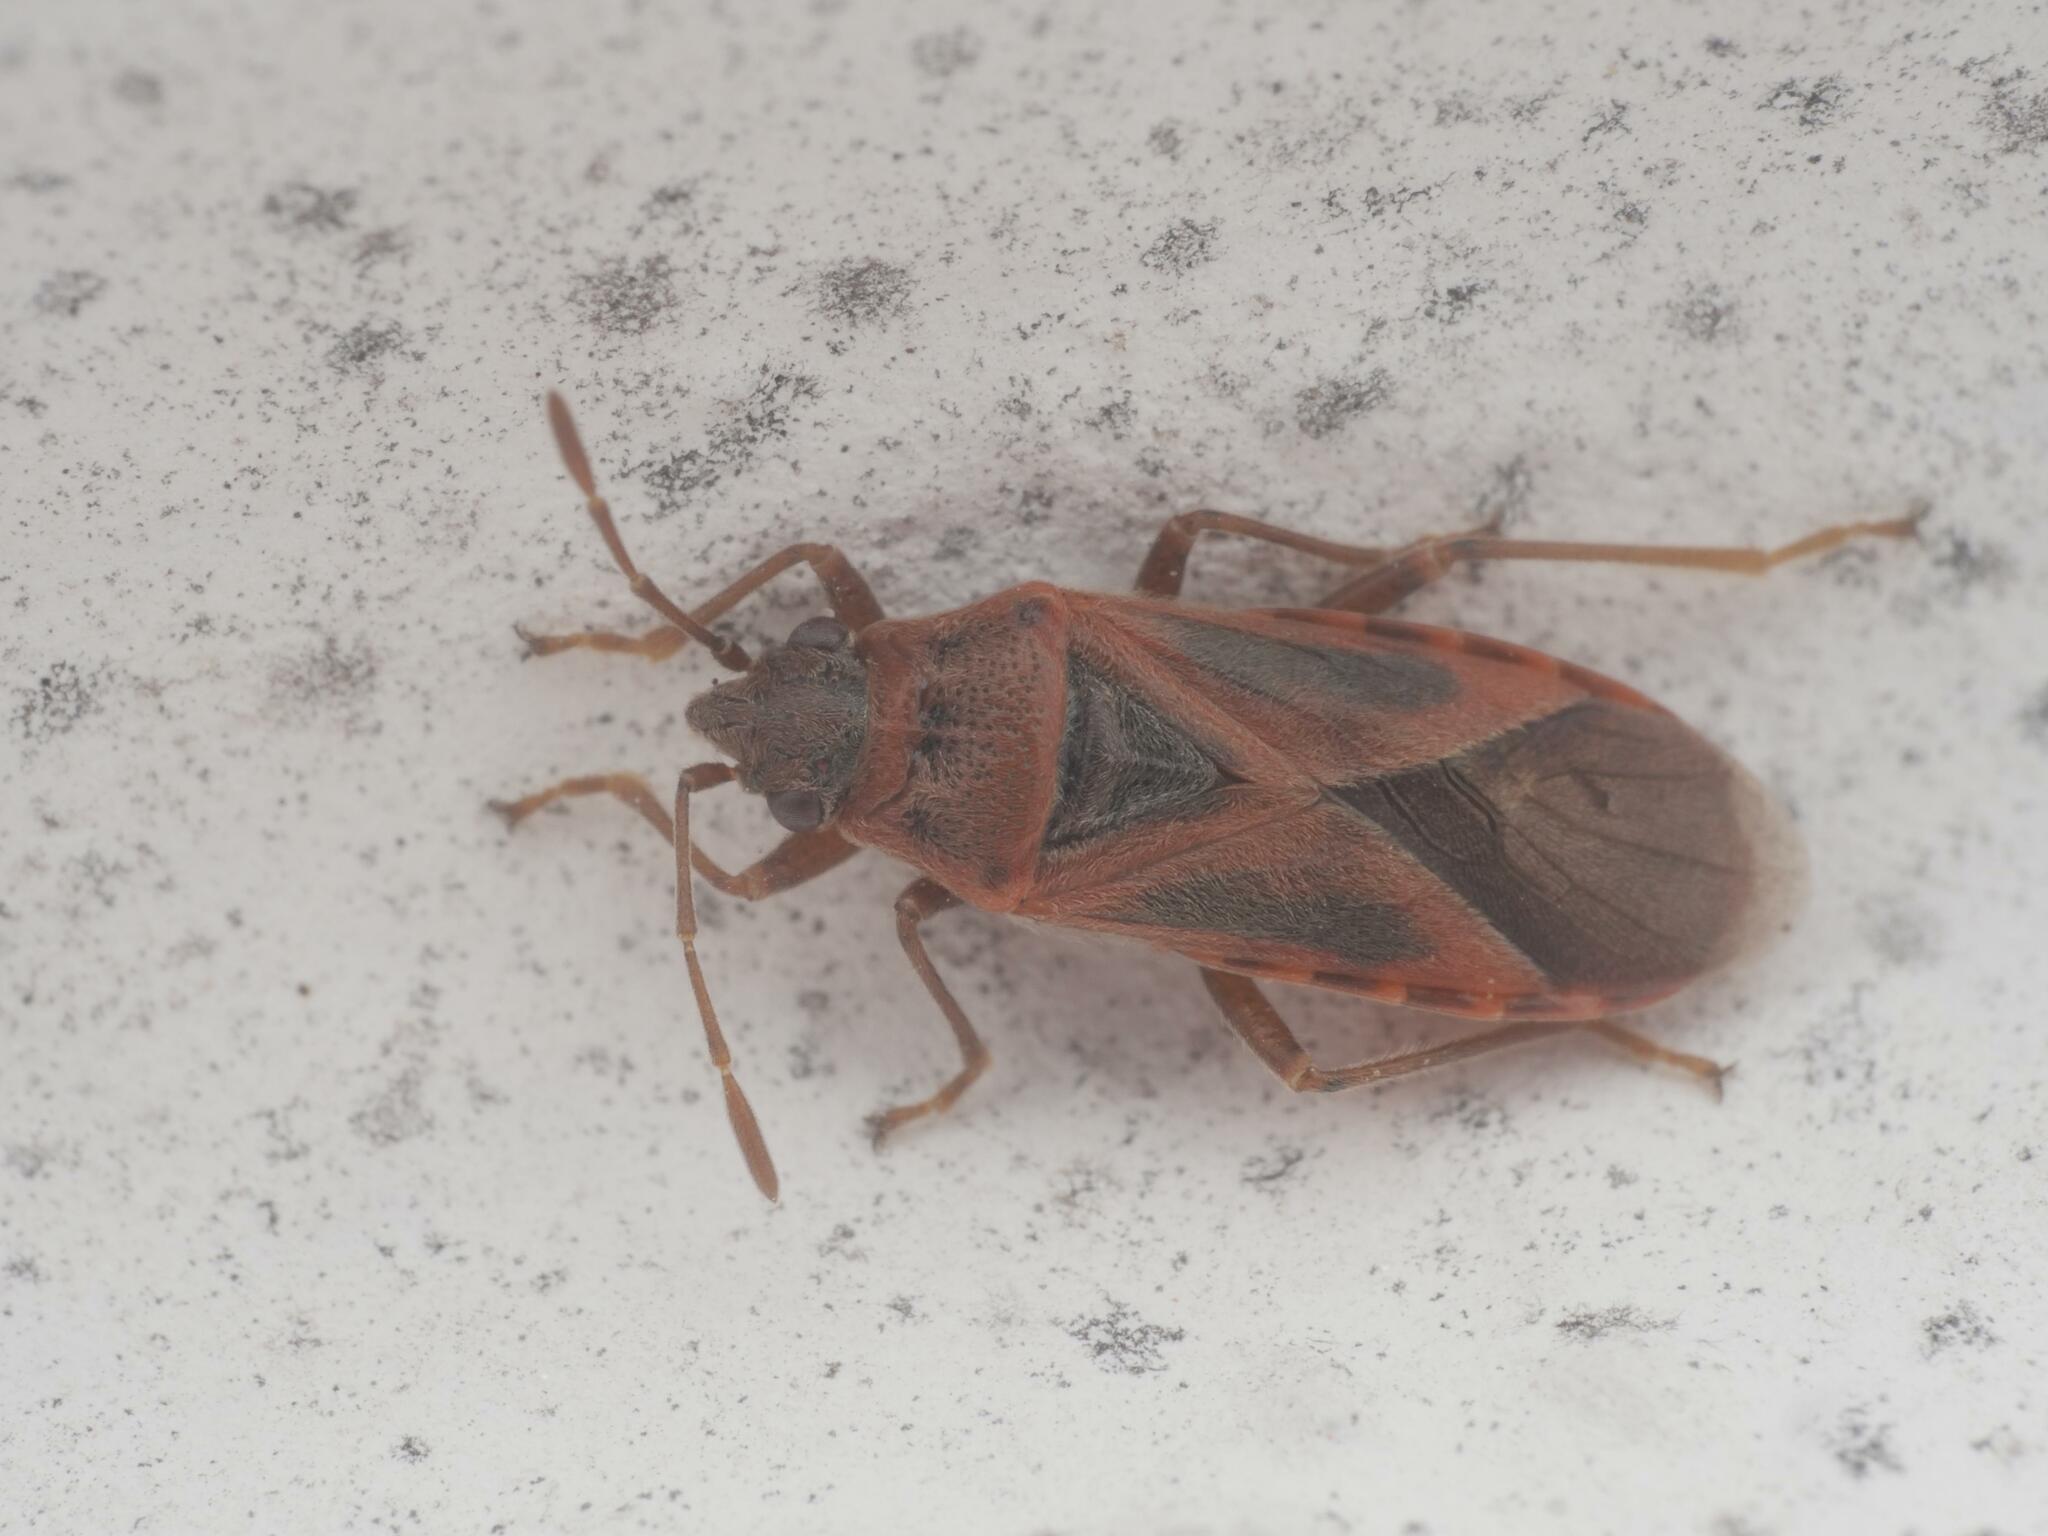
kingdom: Animalia
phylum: Arthropoda
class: Insecta
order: Hemiptera
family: Lygaeidae
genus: Arocatus
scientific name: Arocatus roeselii
